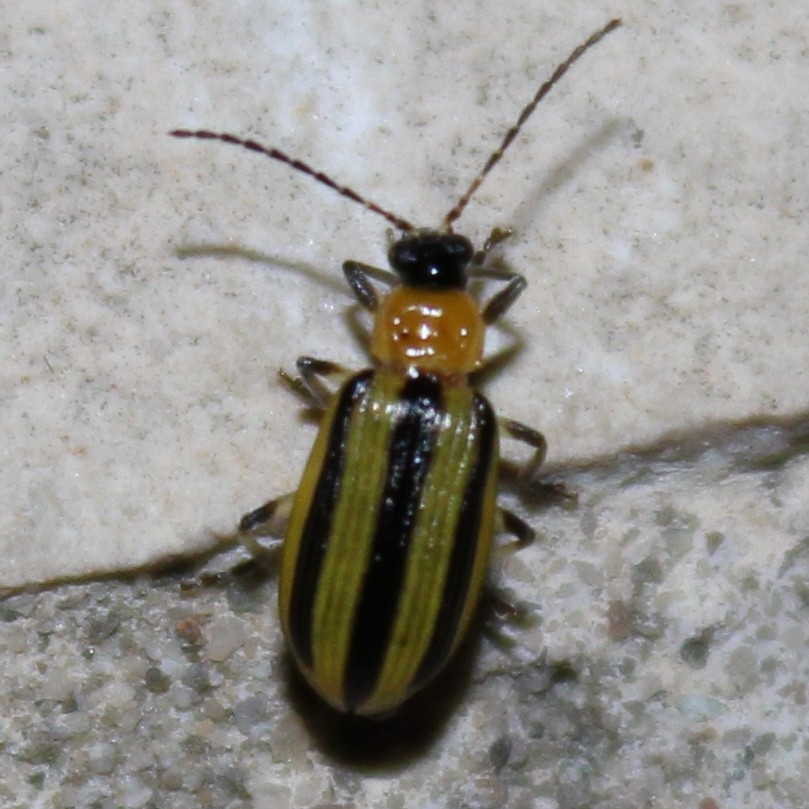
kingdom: Animalia
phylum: Arthropoda
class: Insecta
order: Coleoptera
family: Chrysomelidae
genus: Acalymma
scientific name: Acalymma vittatum
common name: Striped cucumber beetle
